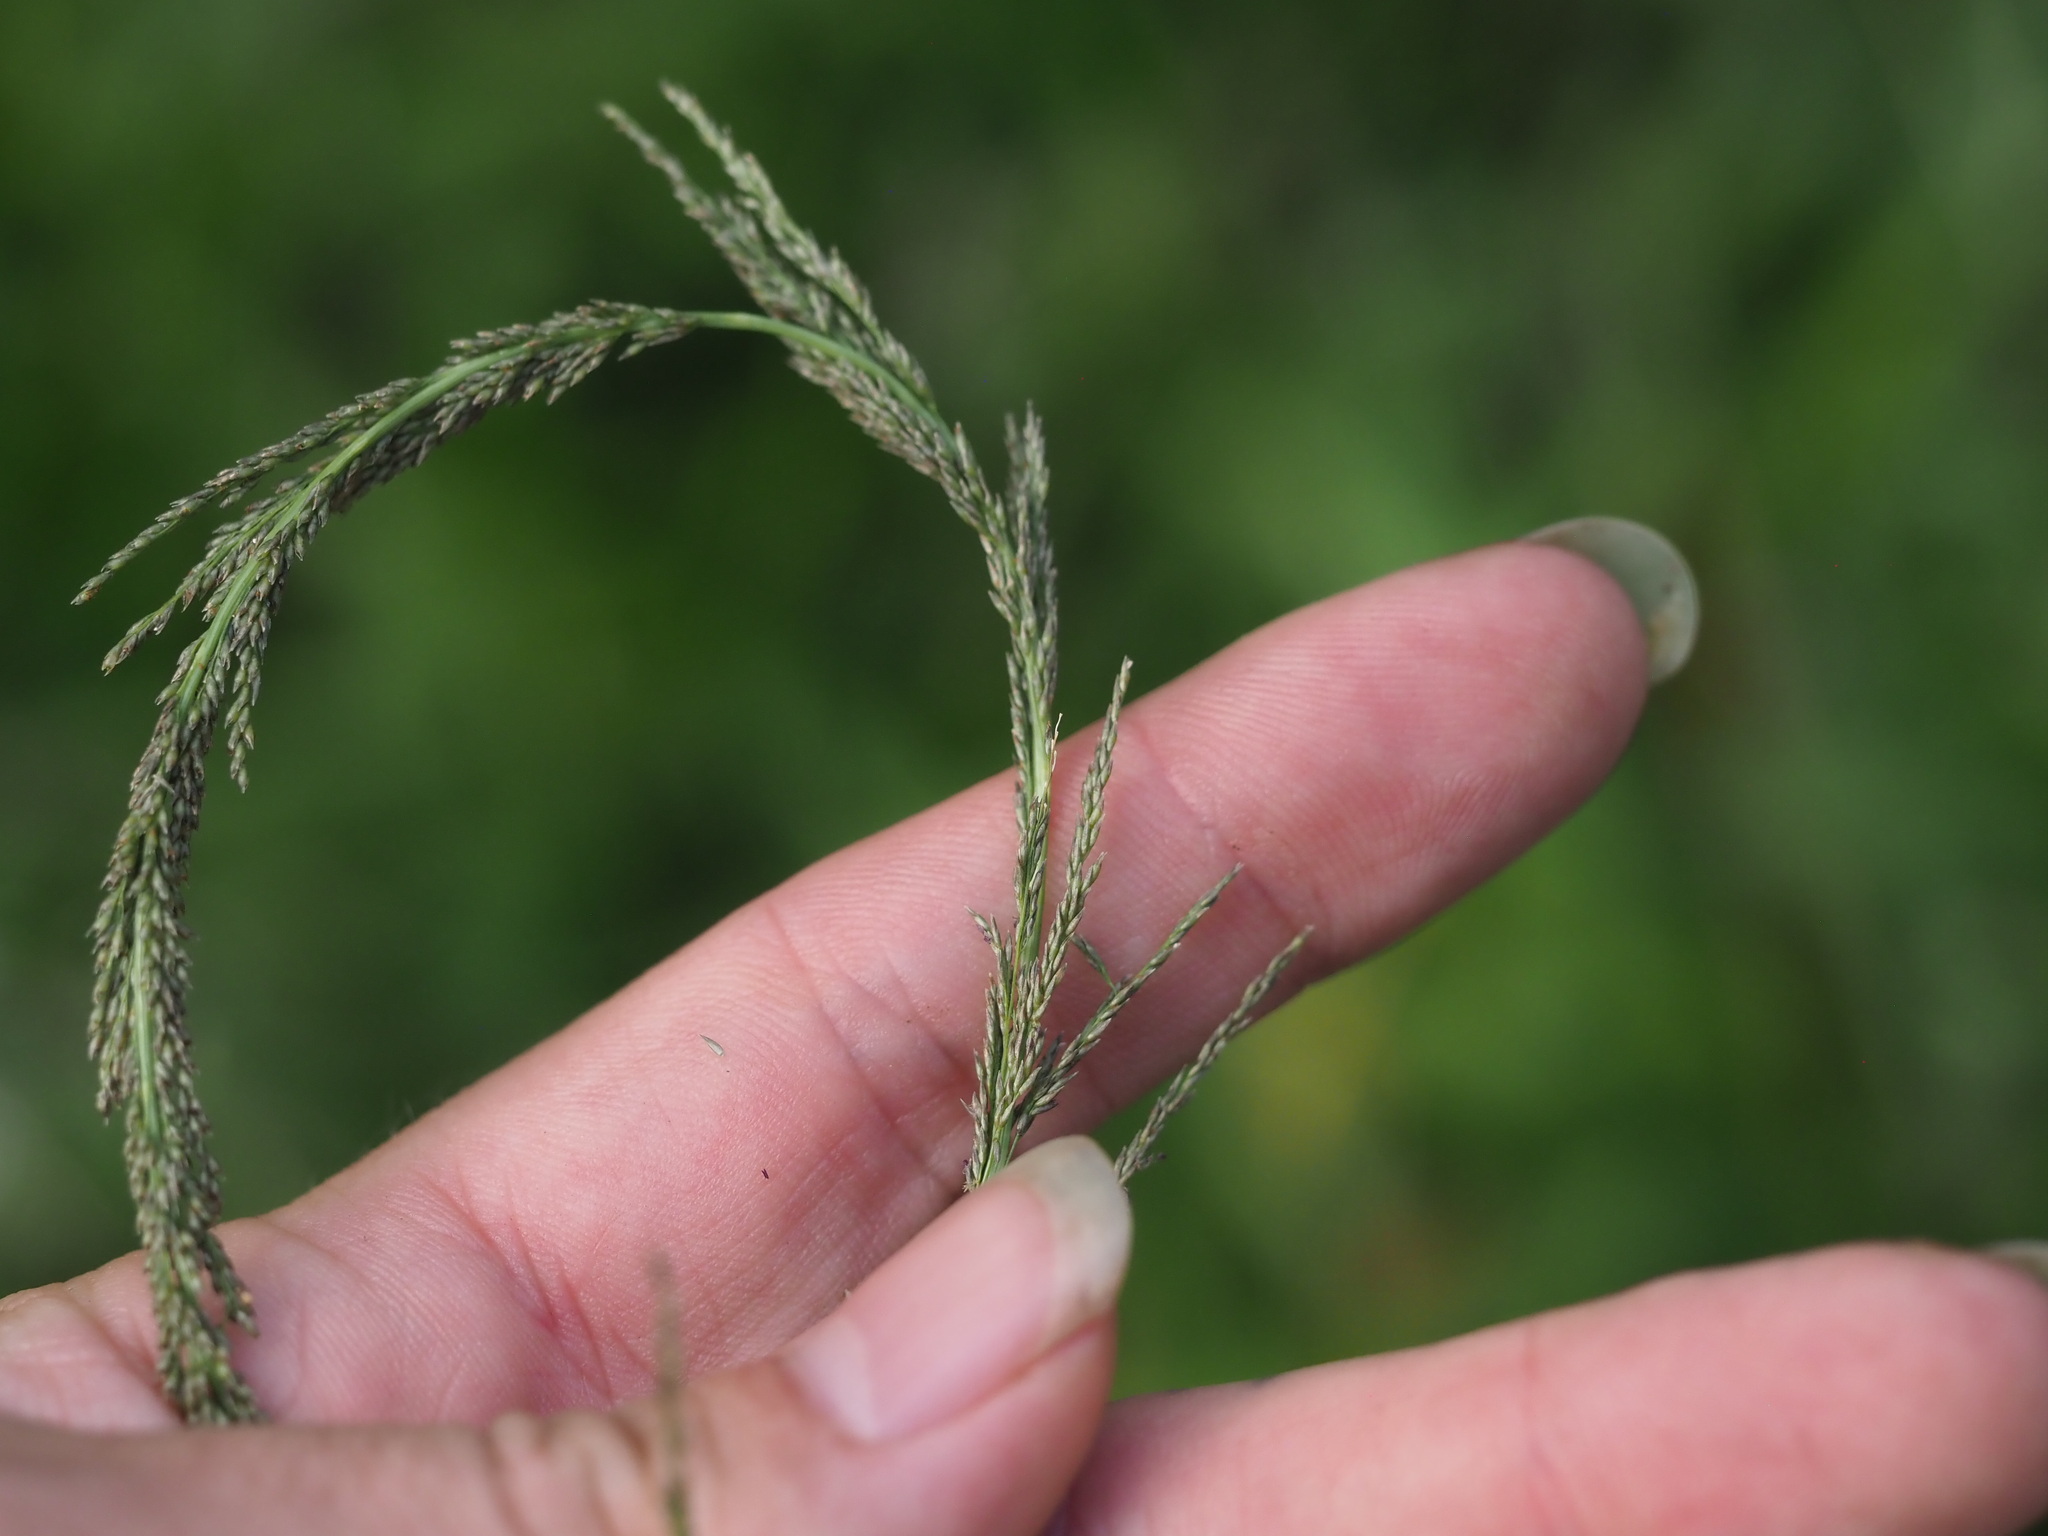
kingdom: Plantae
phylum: Tracheophyta
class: Liliopsida
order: Poales
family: Poaceae
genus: Sporobolus
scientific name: Sporobolus elongatus
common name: Rat tail grass
